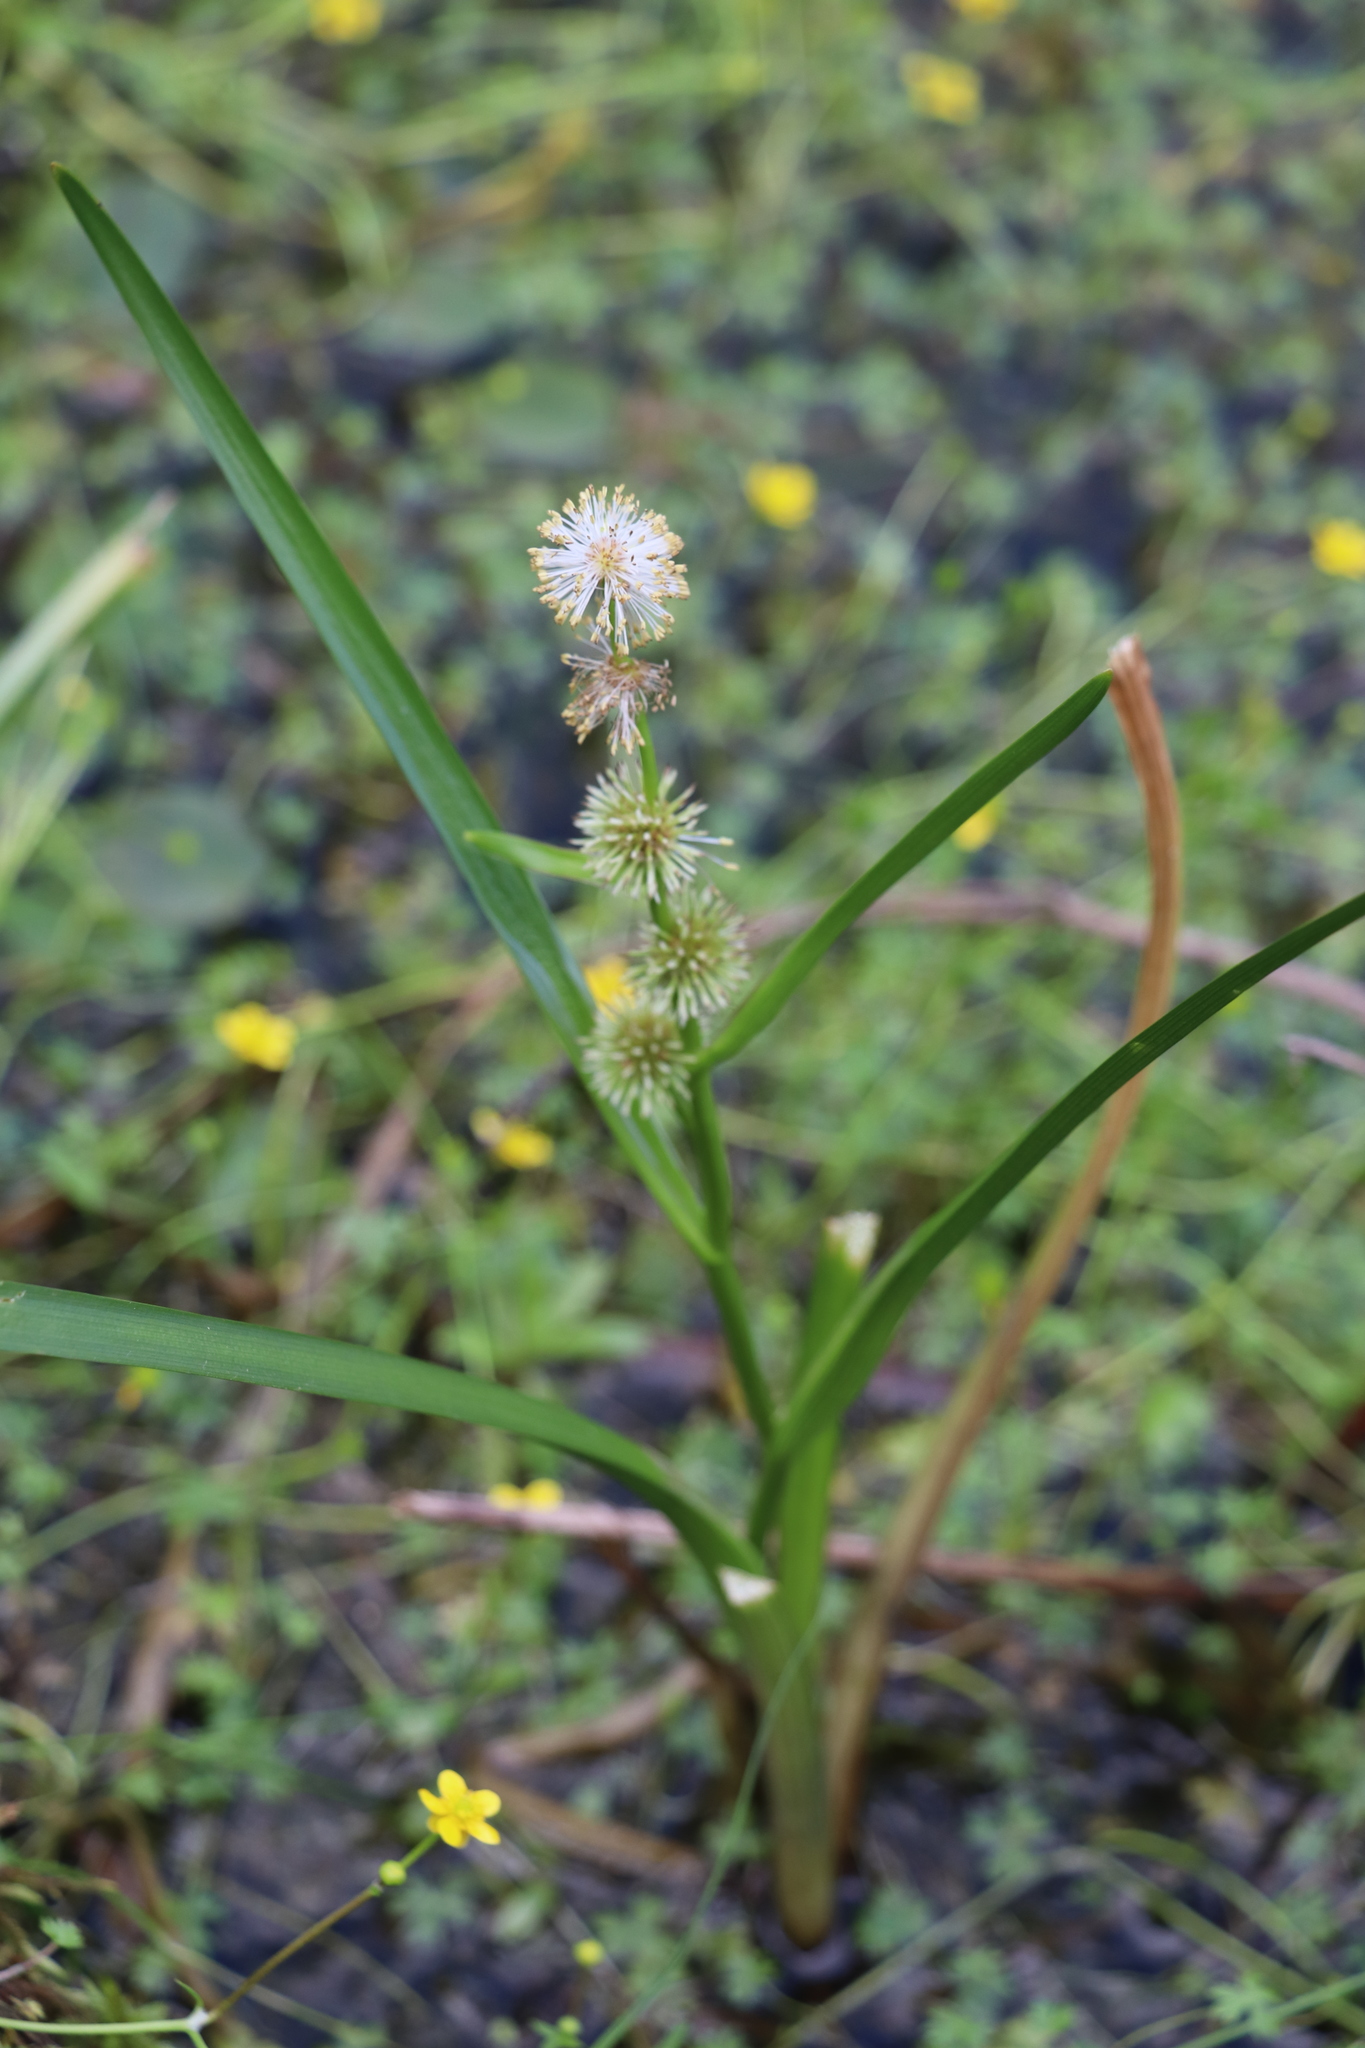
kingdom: Plantae
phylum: Tracheophyta
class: Liliopsida
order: Poales
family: Typhaceae
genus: Sparganium
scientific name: Sparganium emersum
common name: Unbranched bur-reed
